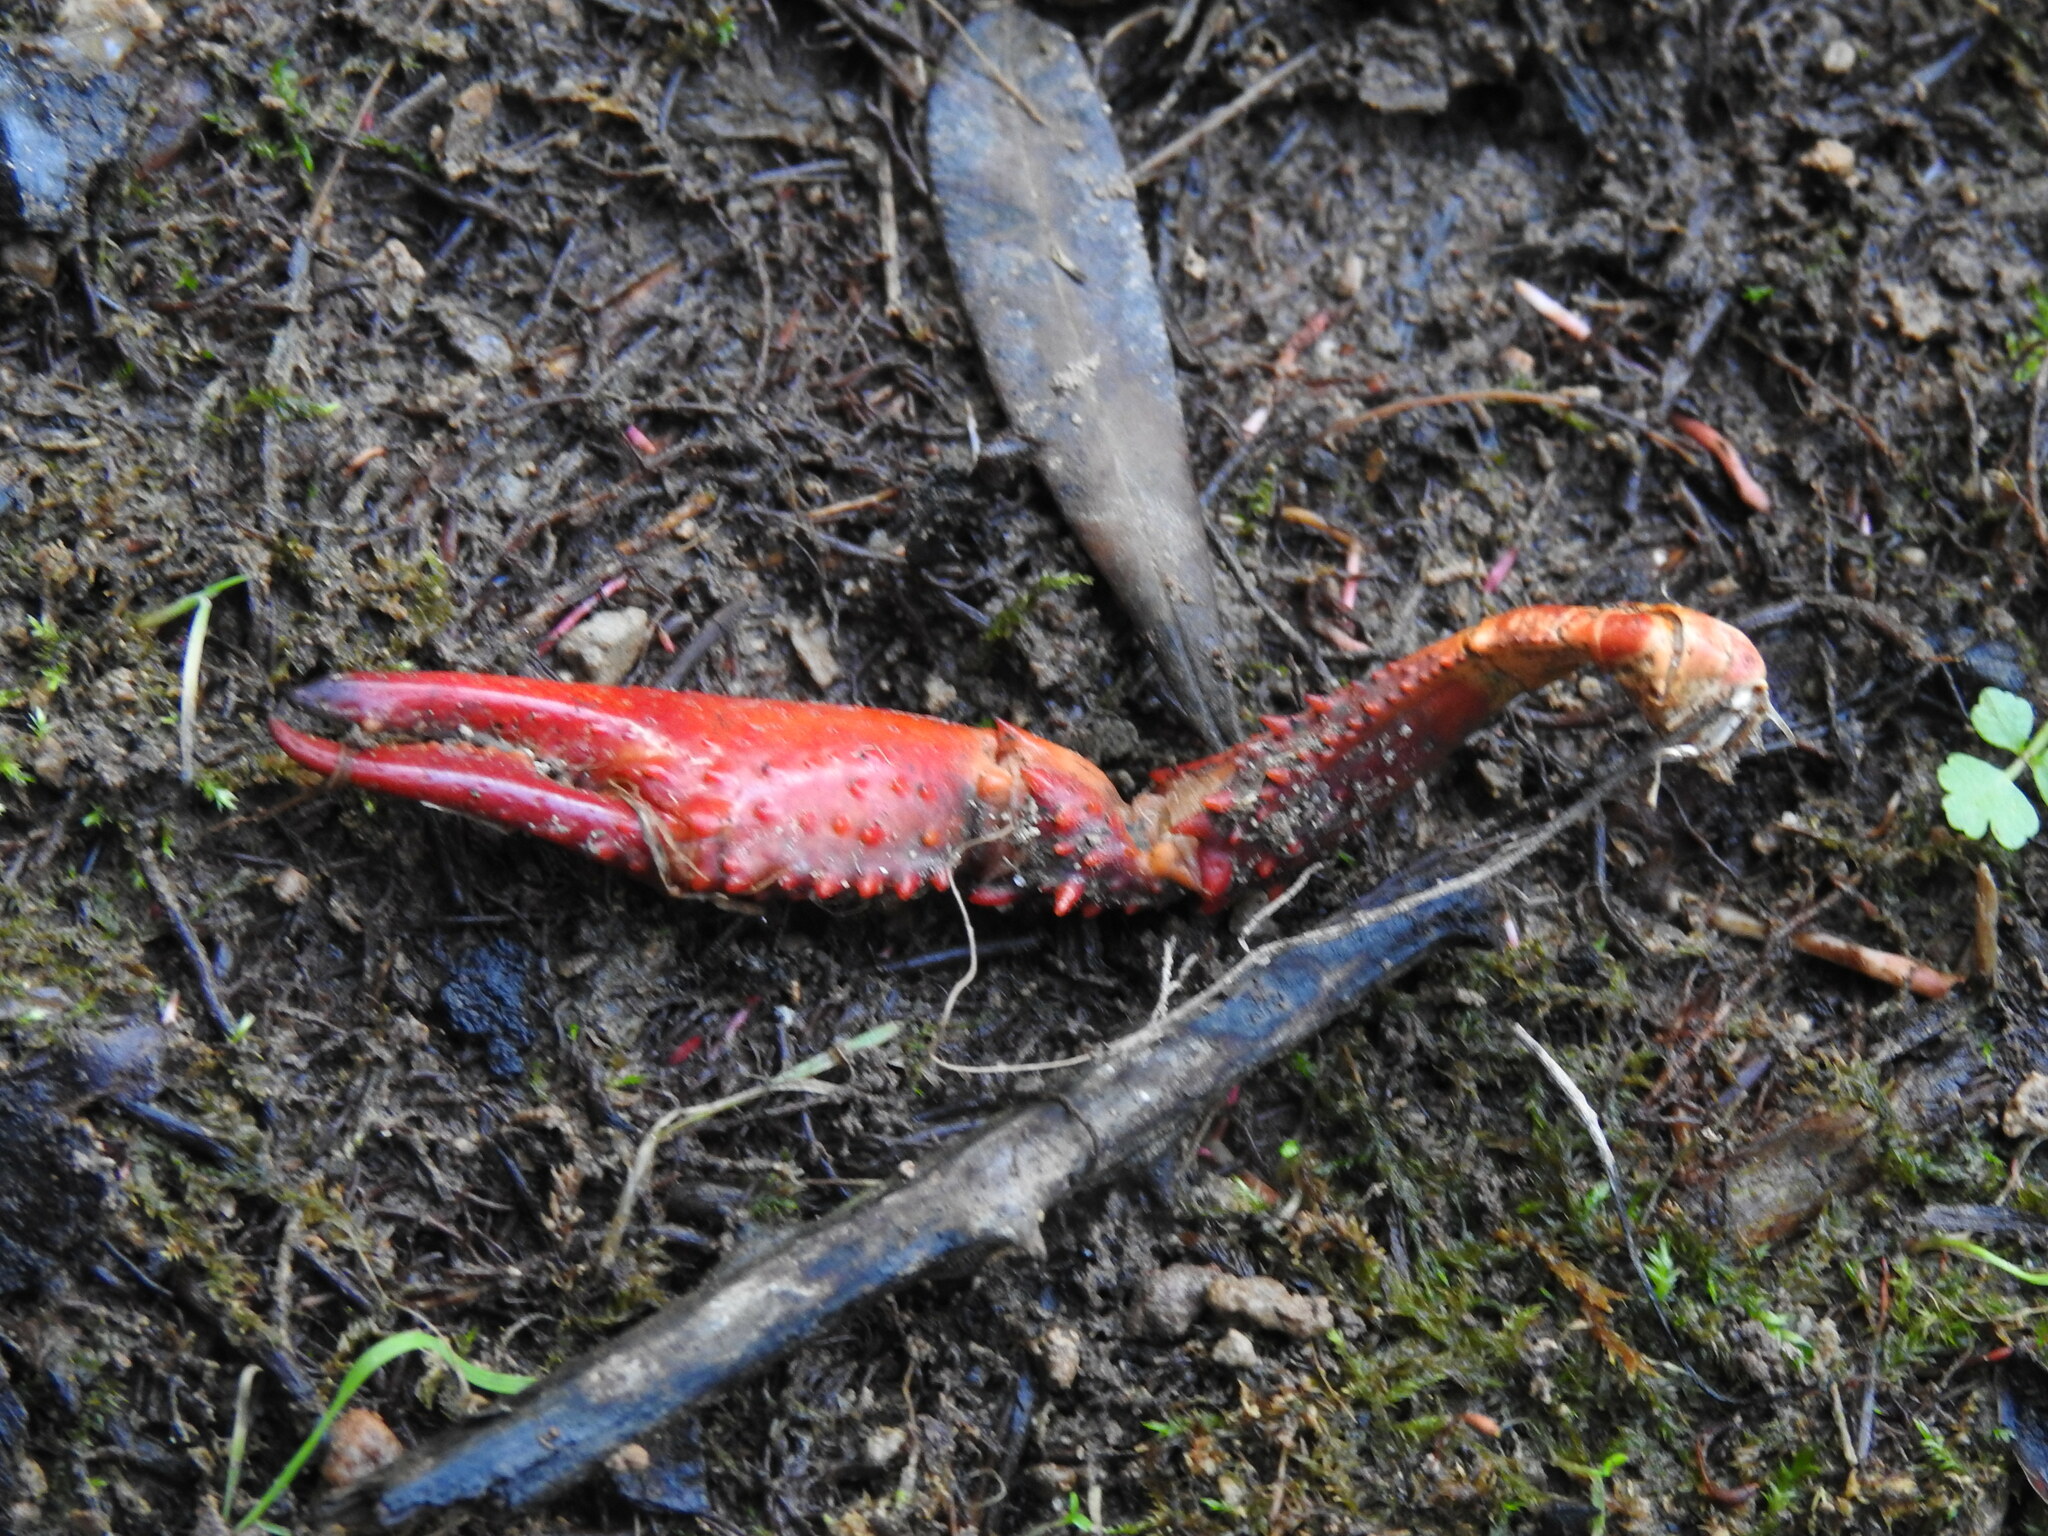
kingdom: Animalia
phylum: Arthropoda
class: Malacostraca
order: Decapoda
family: Cambaridae
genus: Procambarus
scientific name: Procambarus clarkii
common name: Red swamp crayfish
